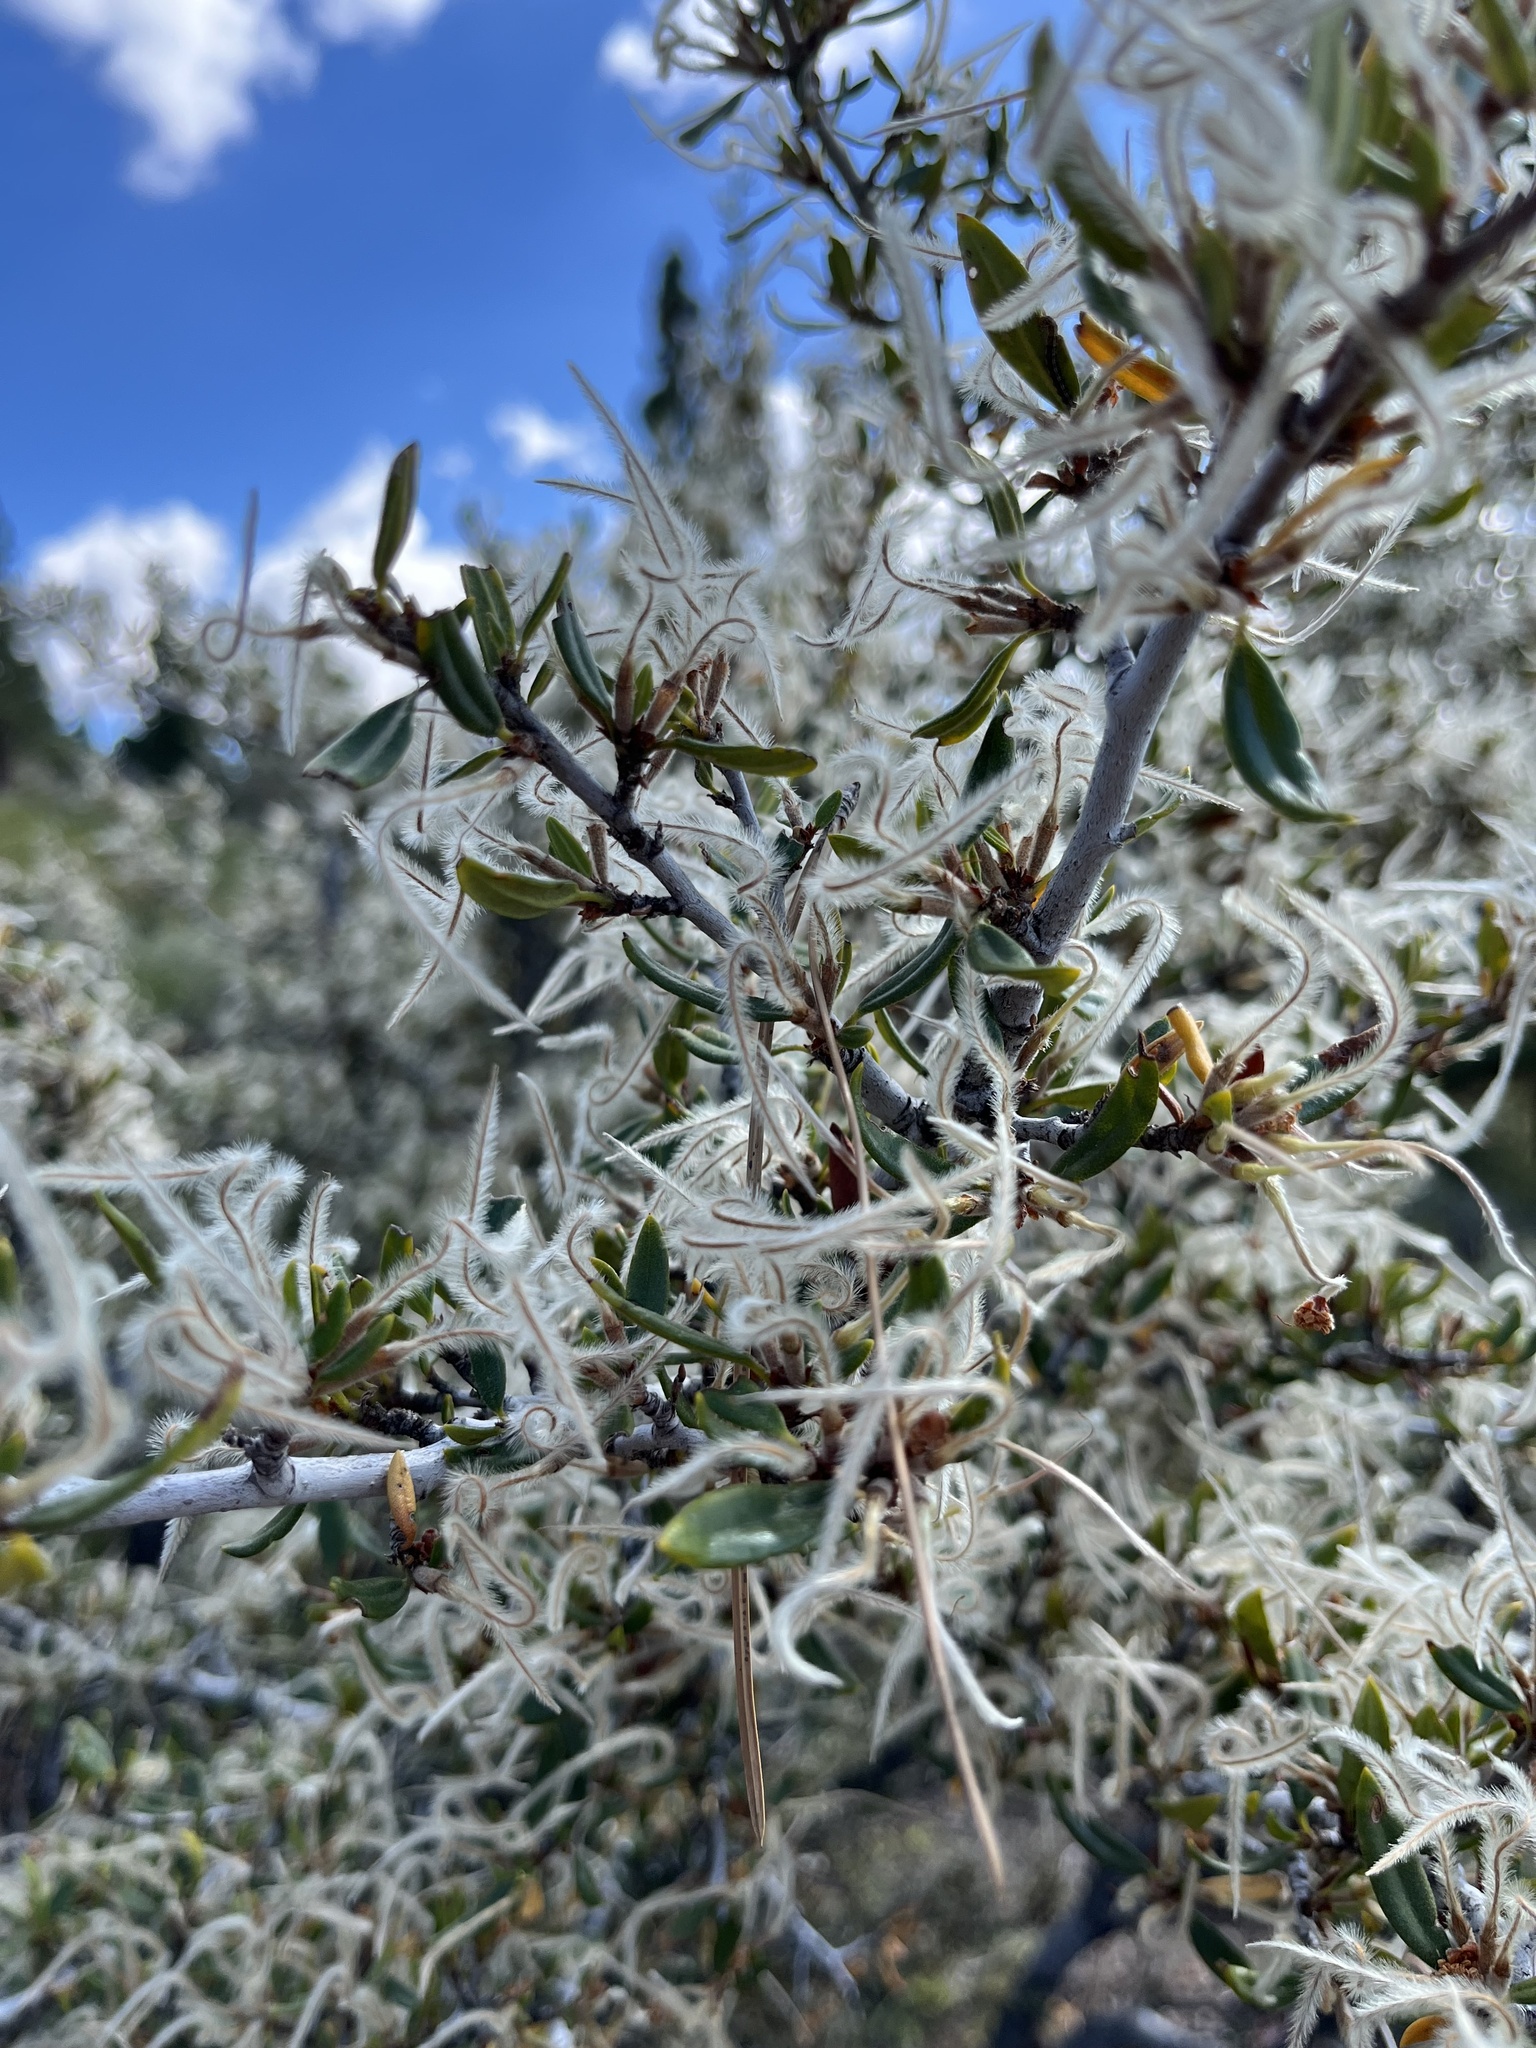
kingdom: Plantae
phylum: Tracheophyta
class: Magnoliopsida
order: Rosales
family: Rosaceae
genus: Cercocarpus
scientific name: Cercocarpus ledifolius
